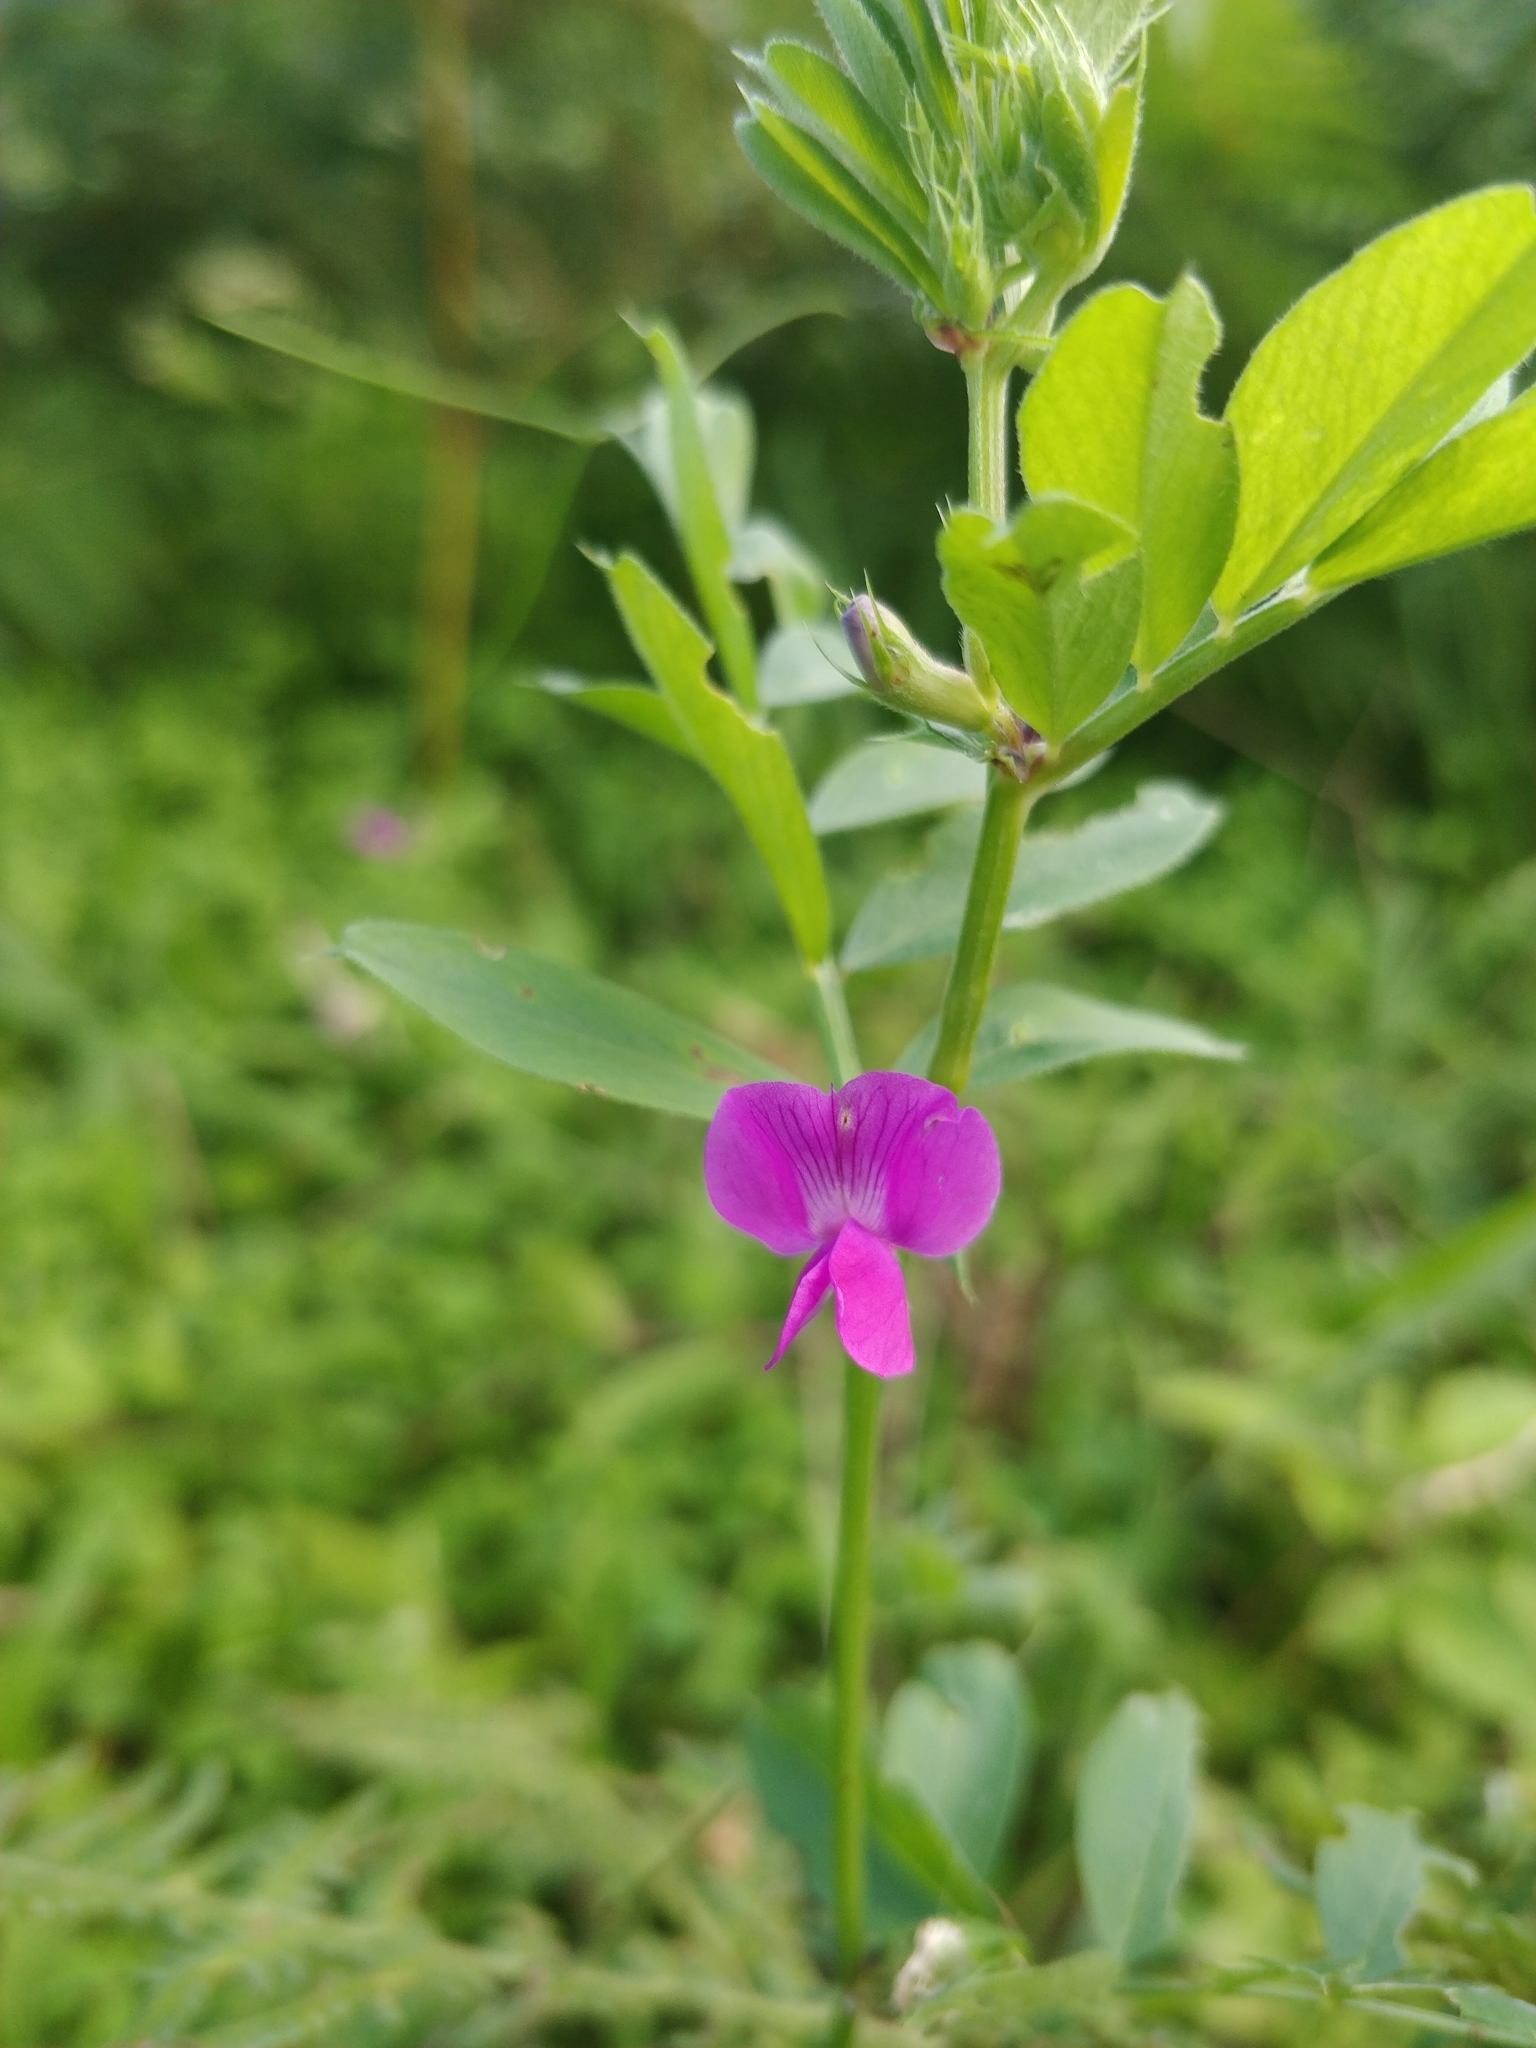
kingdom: Plantae
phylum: Tracheophyta
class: Magnoliopsida
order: Fabales
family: Fabaceae
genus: Vicia
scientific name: Vicia sativa
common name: Garden vetch
